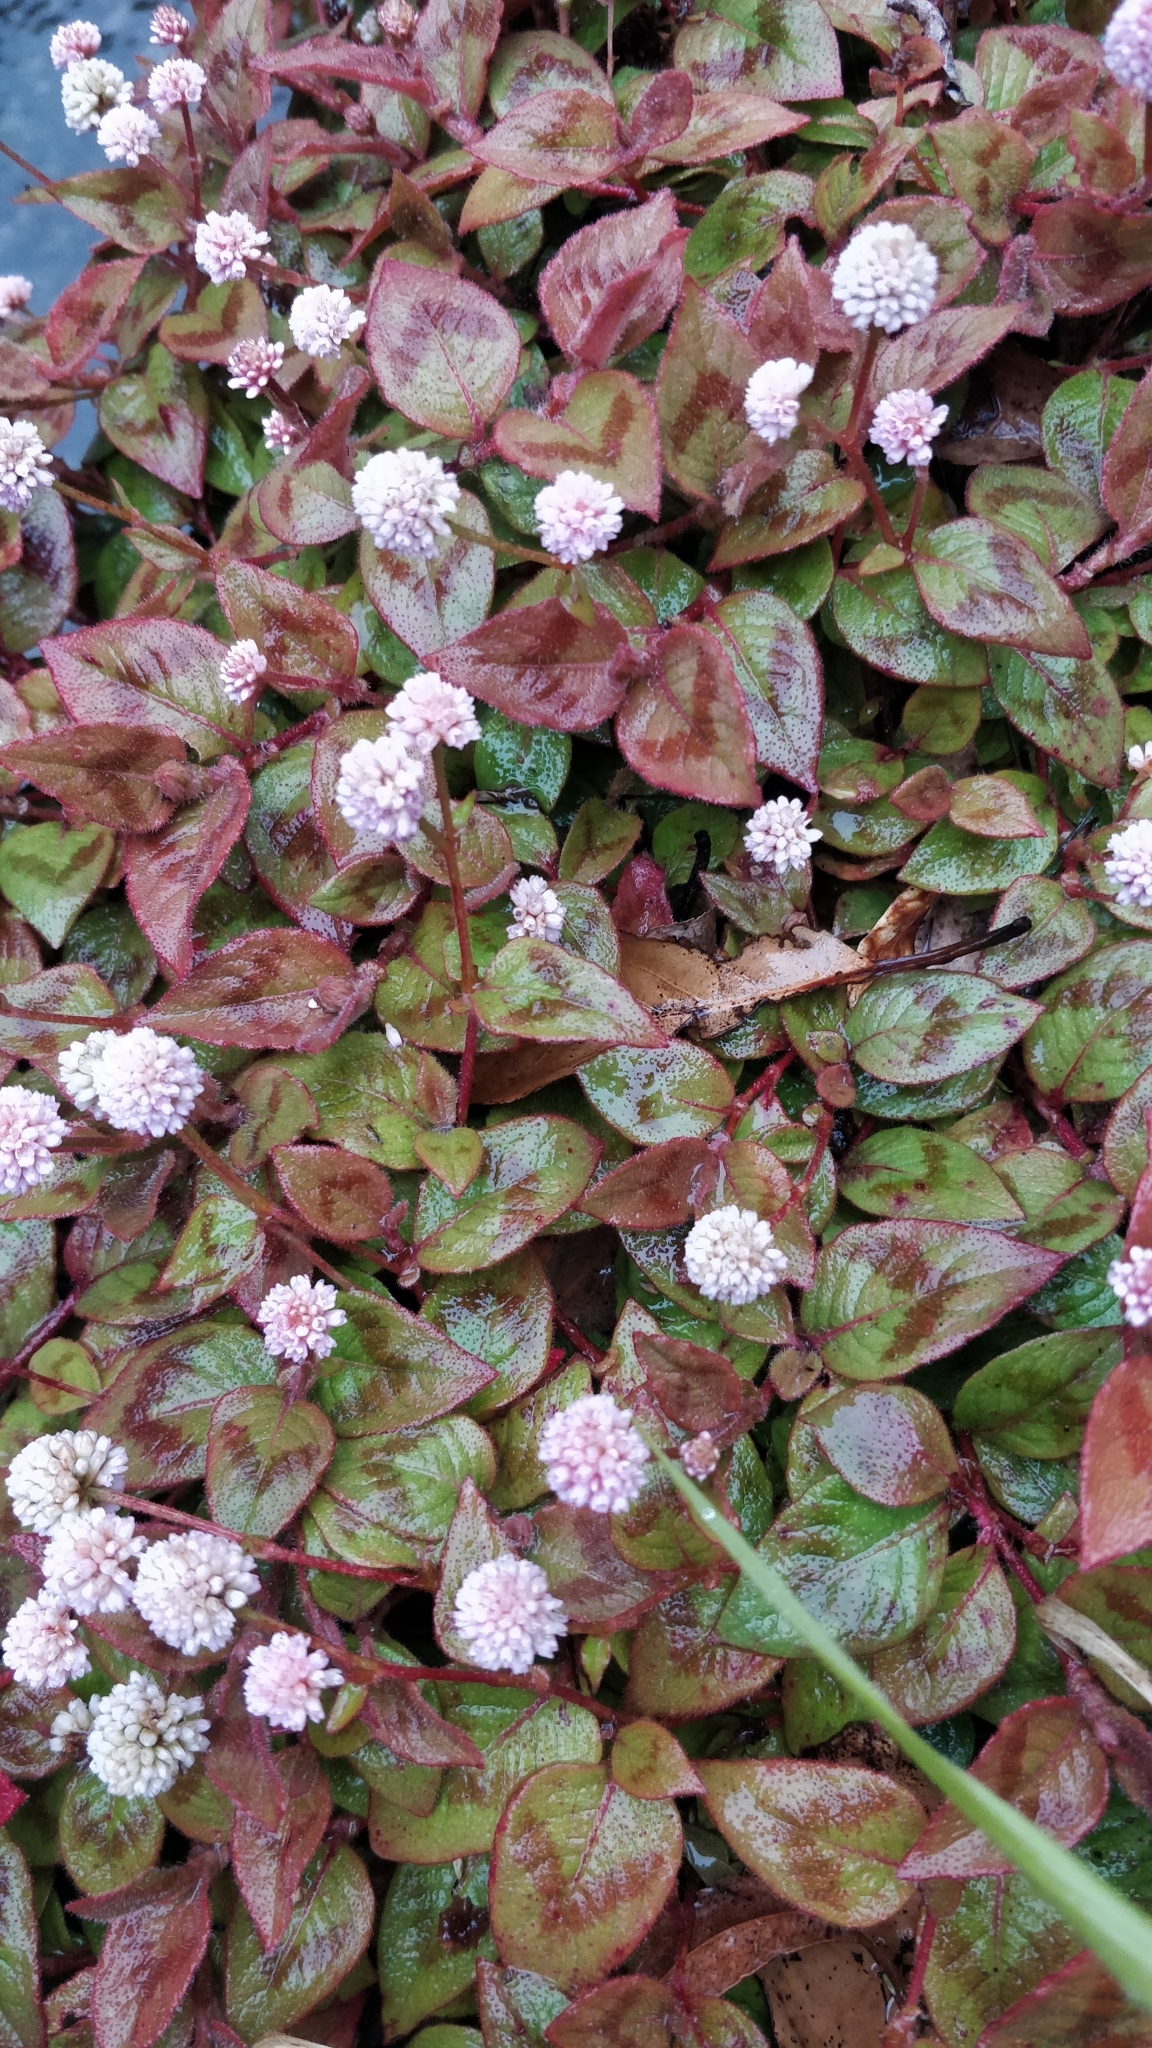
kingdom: Plantae
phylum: Tracheophyta
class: Magnoliopsida
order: Caryophyllales
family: Polygonaceae
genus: Persicaria
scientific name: Persicaria capitata
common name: Pinkhead smartweed
